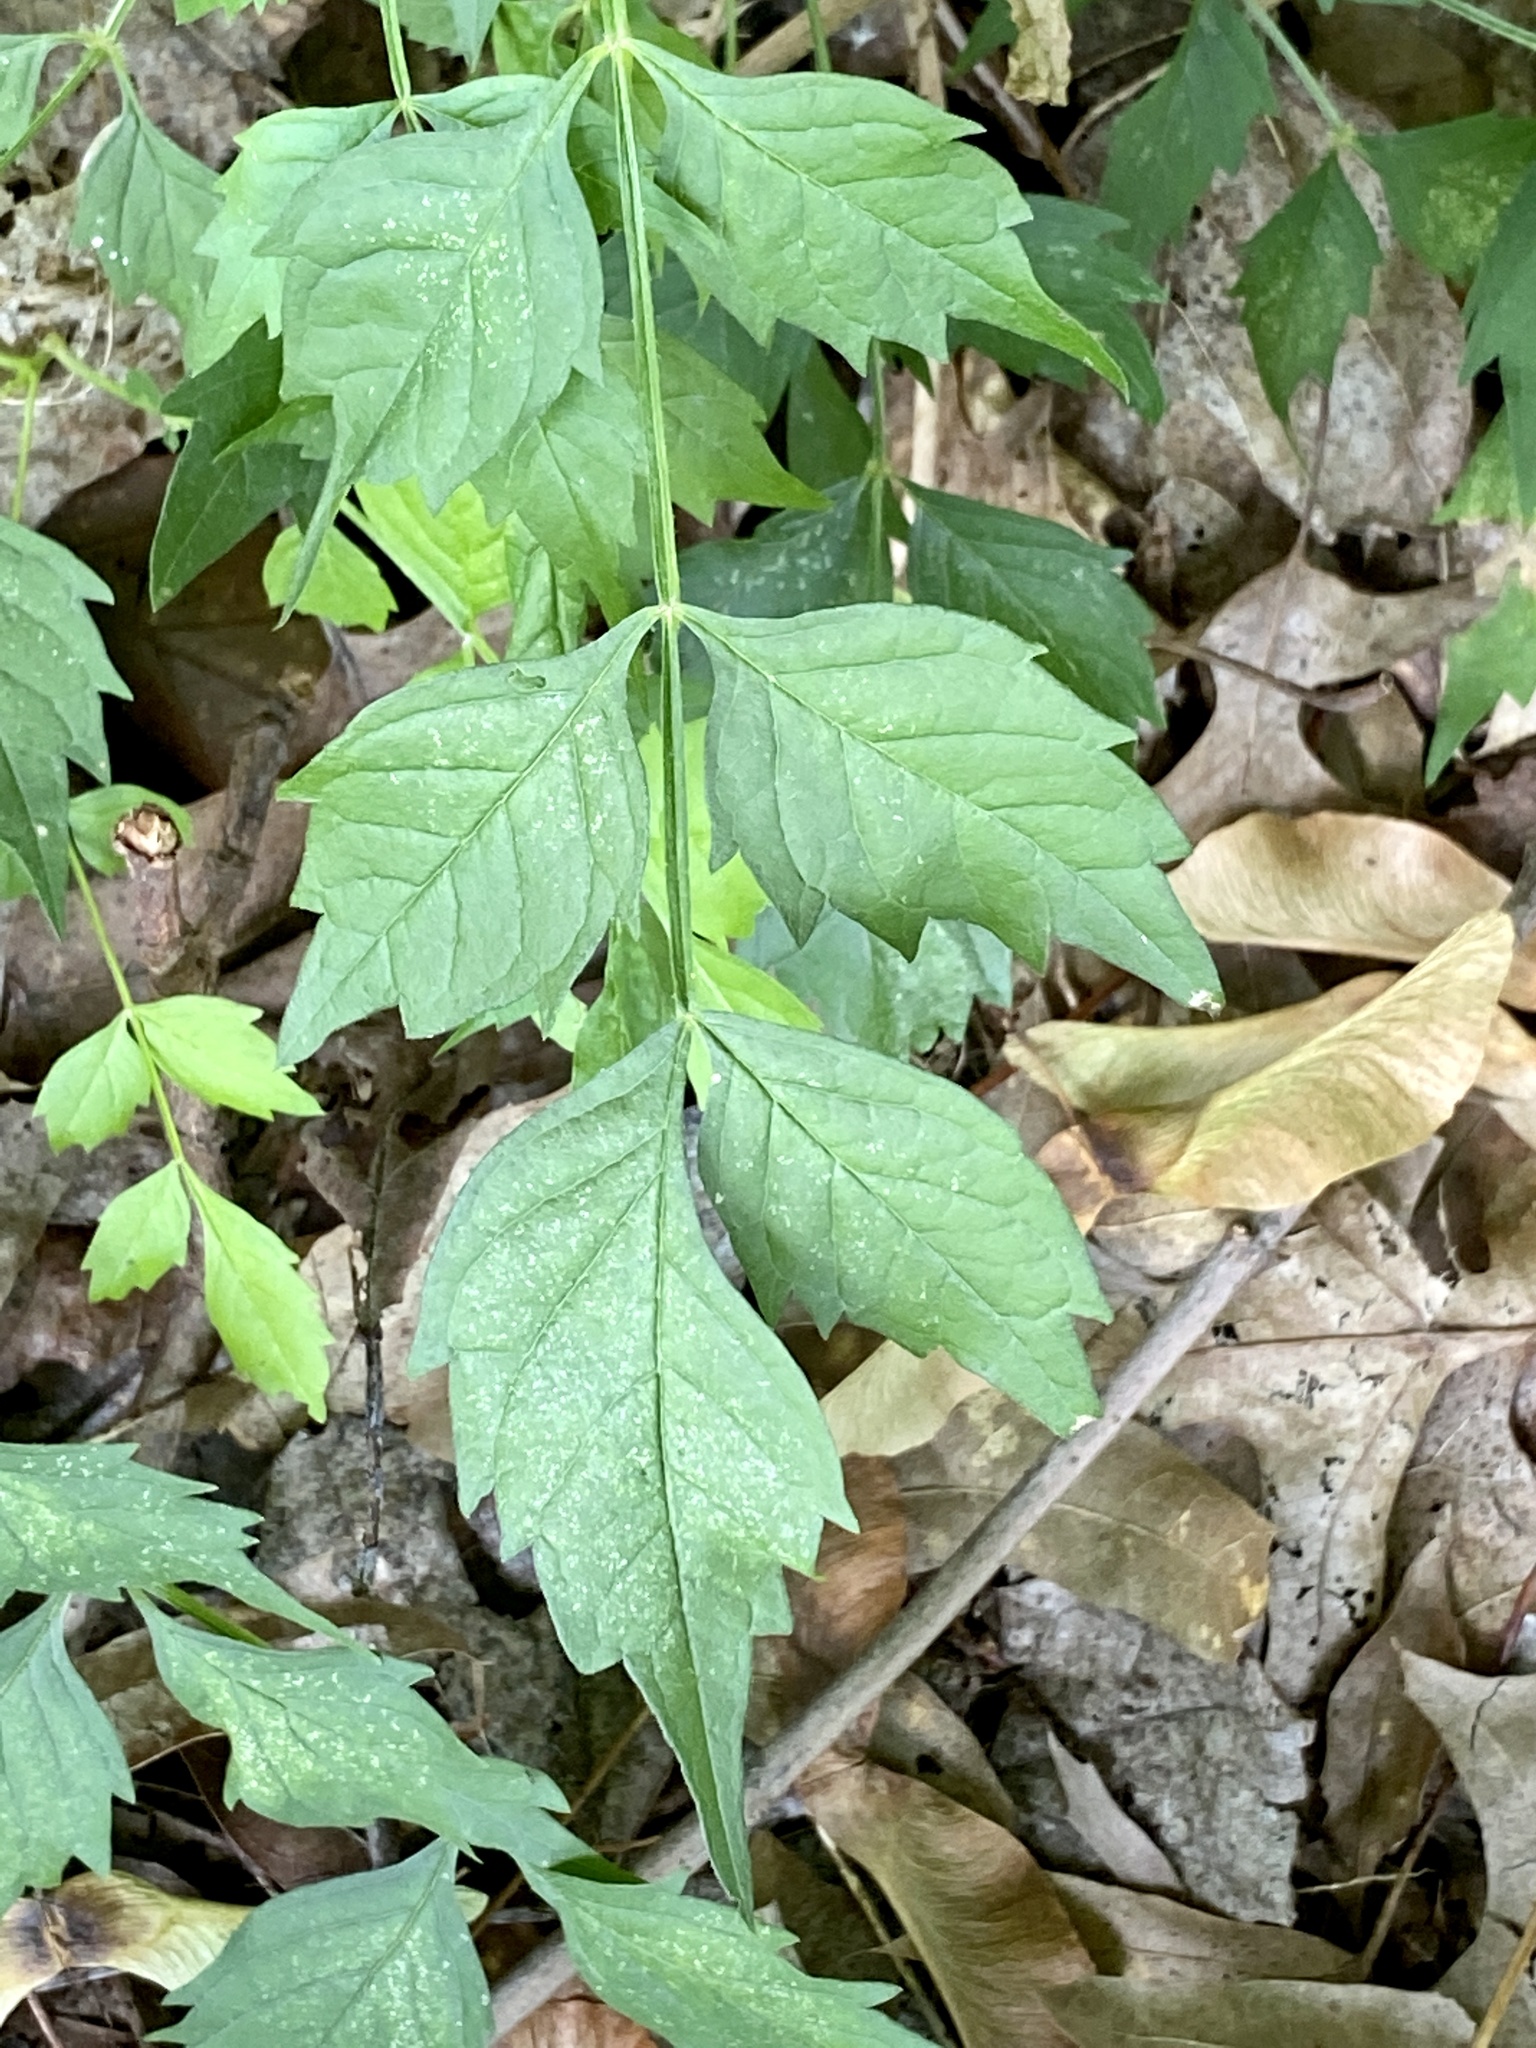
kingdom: Plantae
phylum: Tracheophyta
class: Magnoliopsida
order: Lamiales
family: Bignoniaceae
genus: Campsis
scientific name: Campsis radicans
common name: Trumpet-creeper
